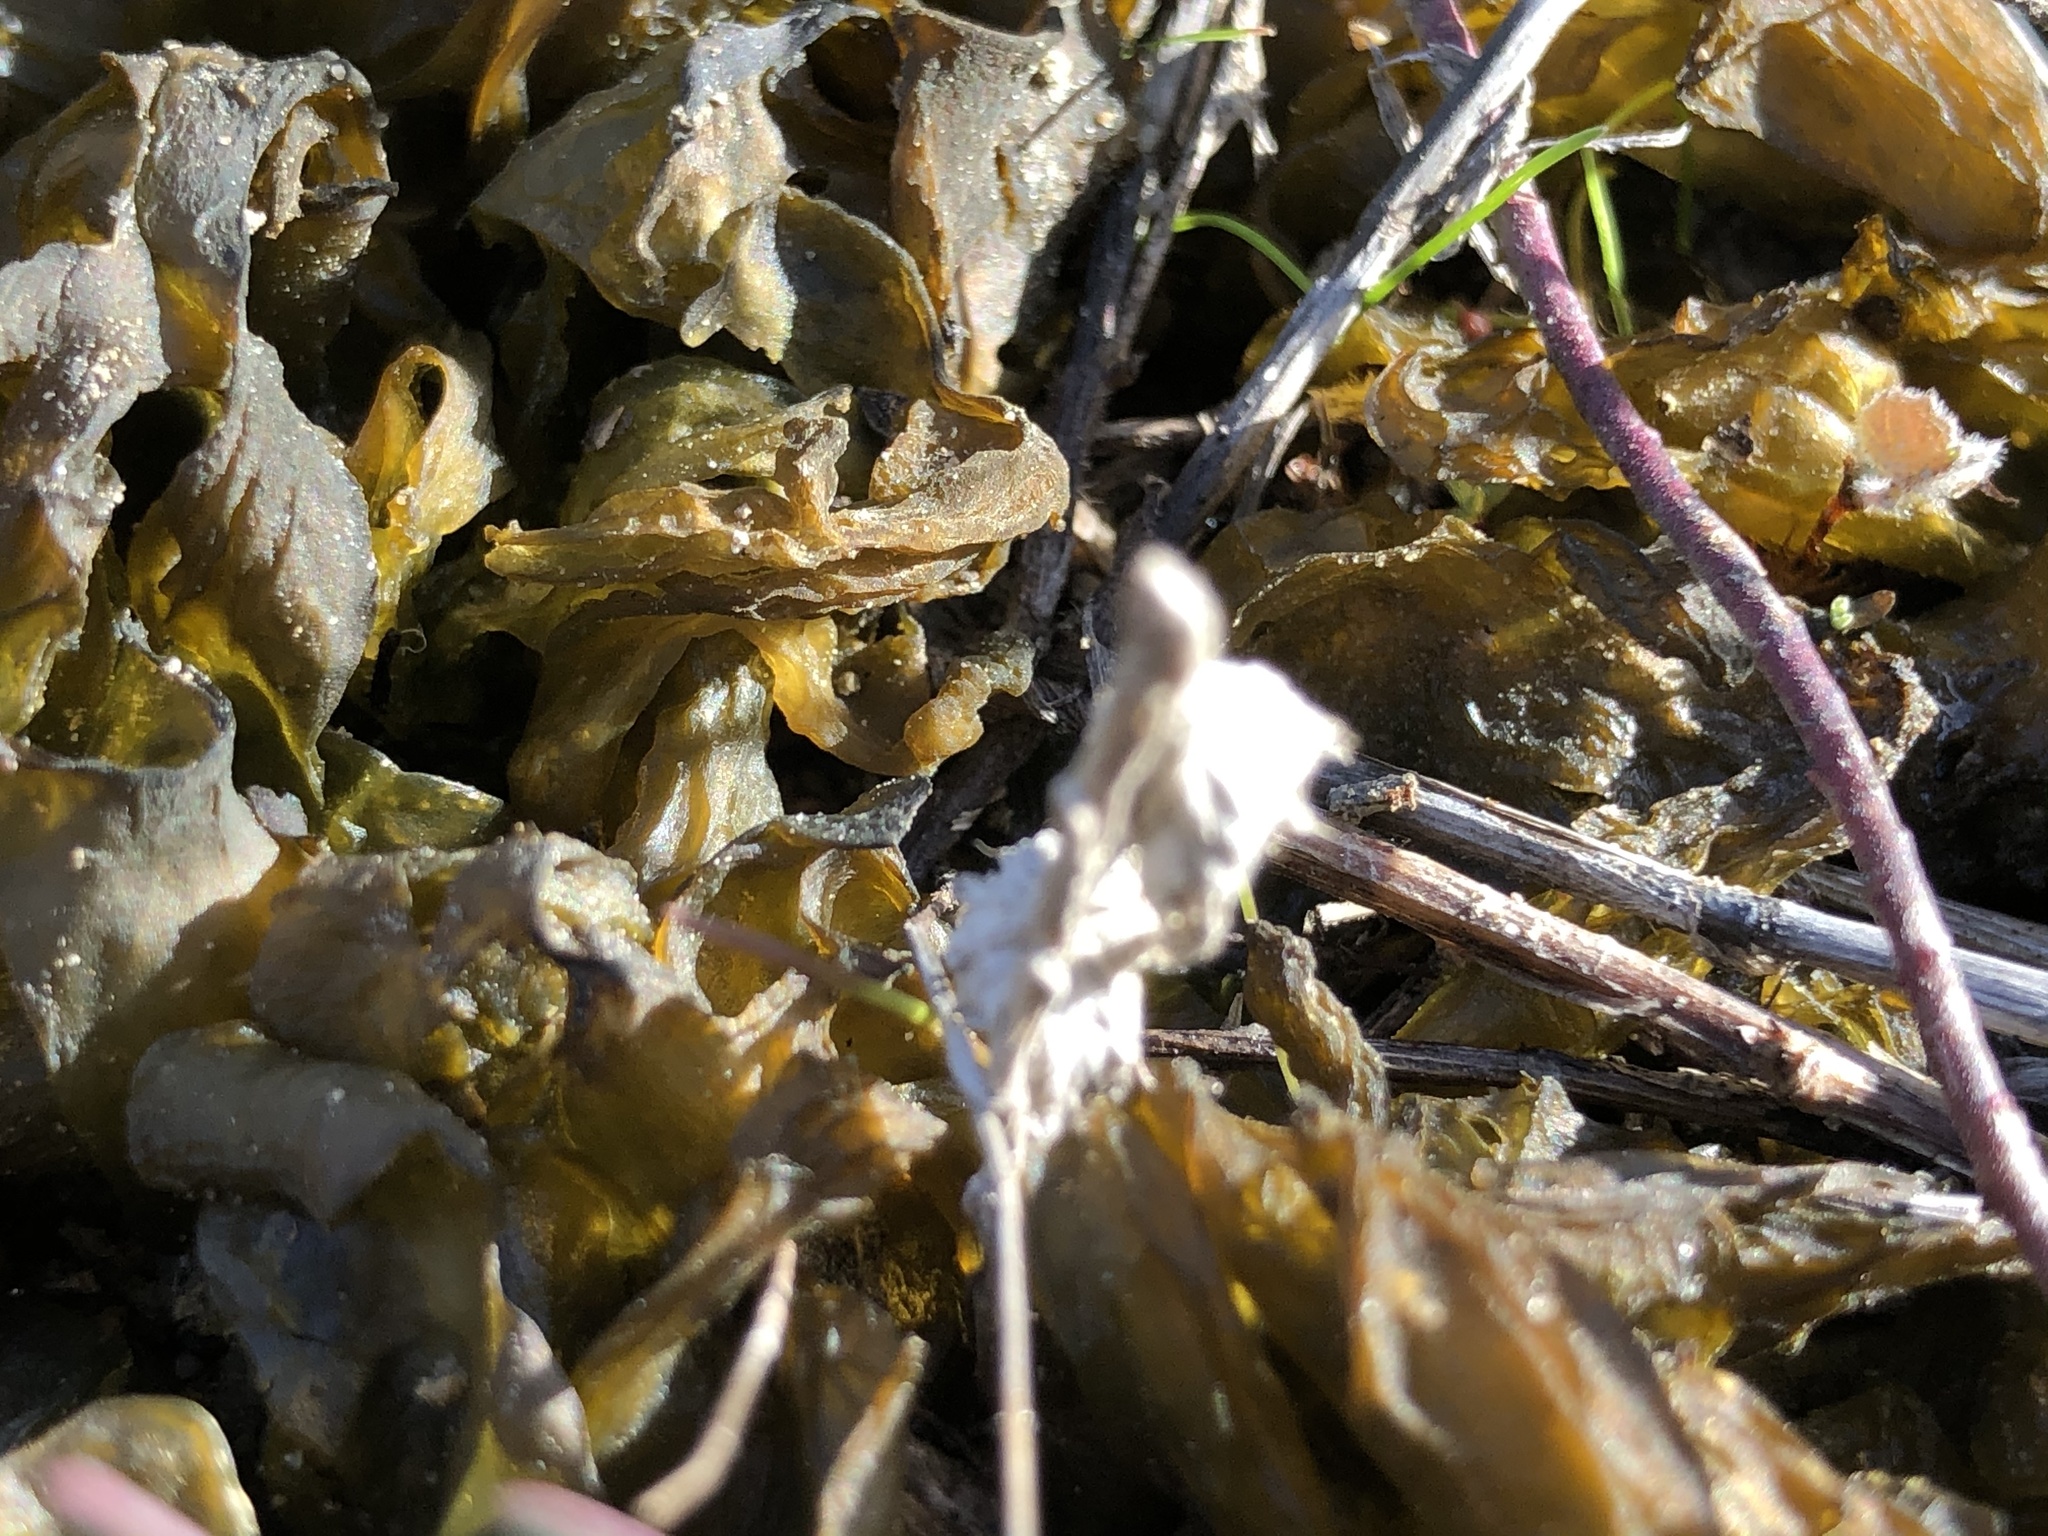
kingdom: Bacteria
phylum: Cyanobacteria
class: Cyanobacteriia
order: Cyanobacteriales
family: Nostocaceae
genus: Nostoc
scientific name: Nostoc commune
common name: Star jelly
